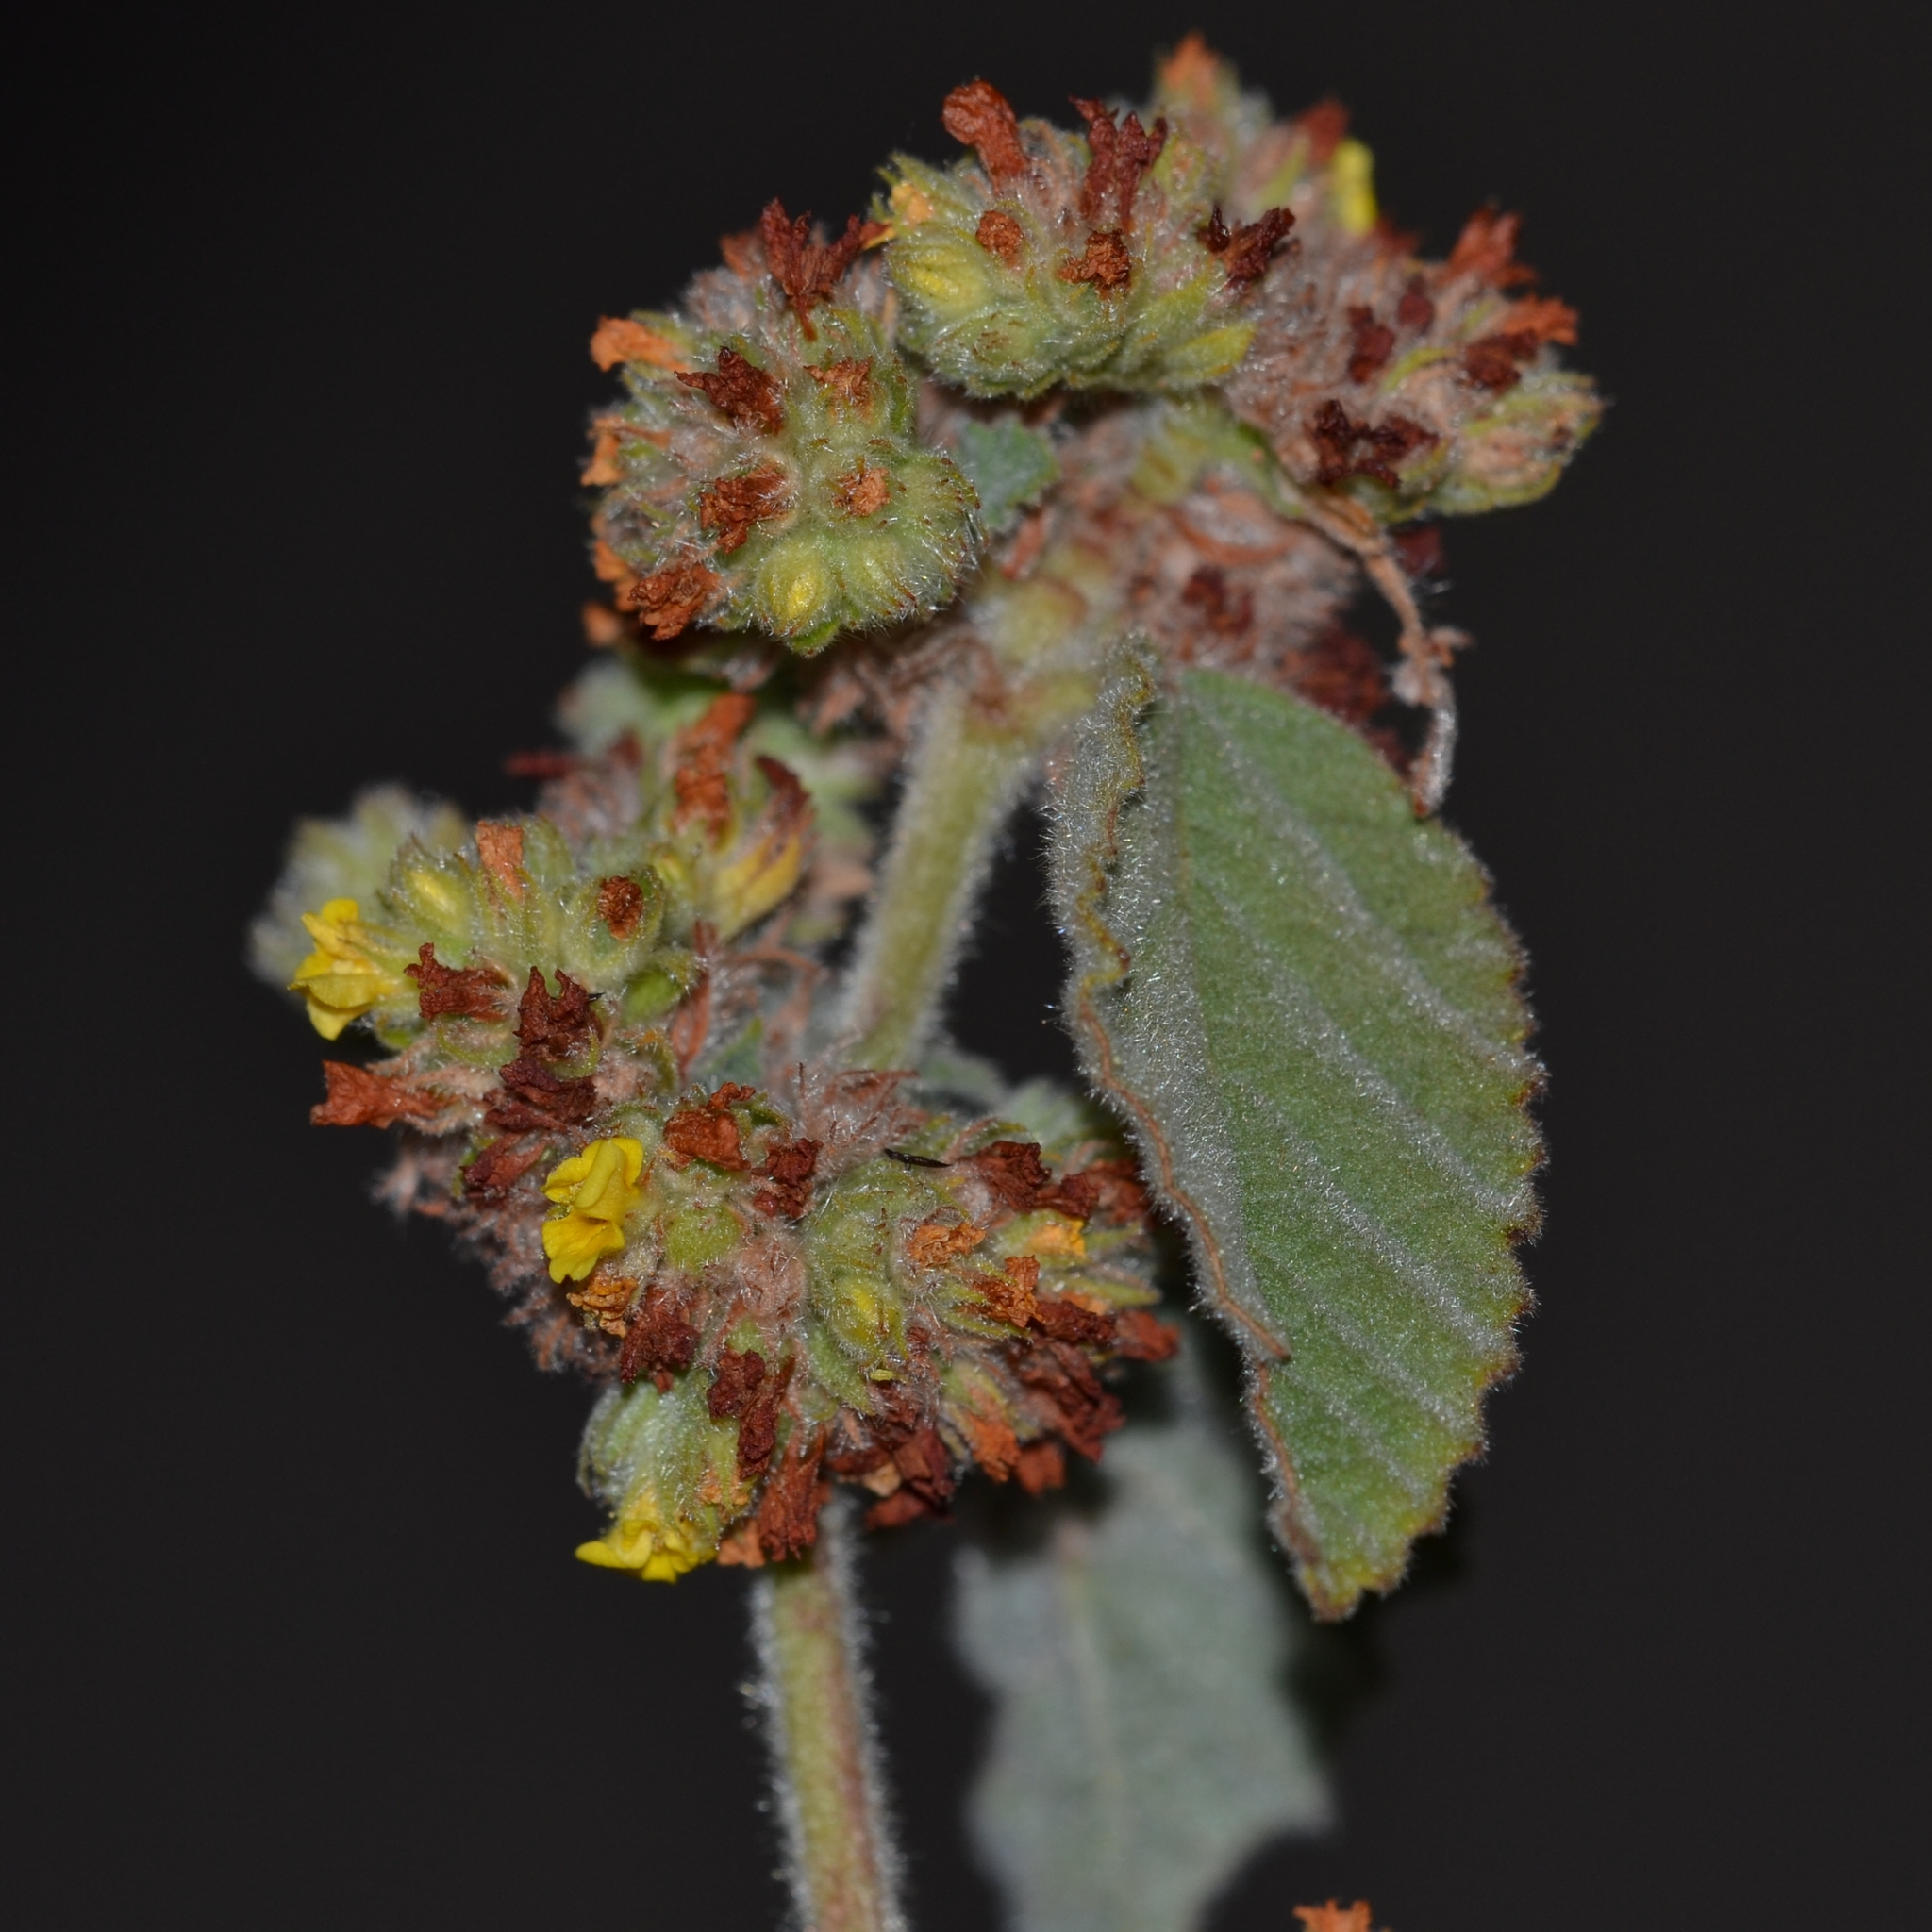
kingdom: Plantae
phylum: Tracheophyta
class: Magnoliopsida
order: Malvales
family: Malvaceae
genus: Waltheria
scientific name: Waltheria indica
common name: Leather-coat
